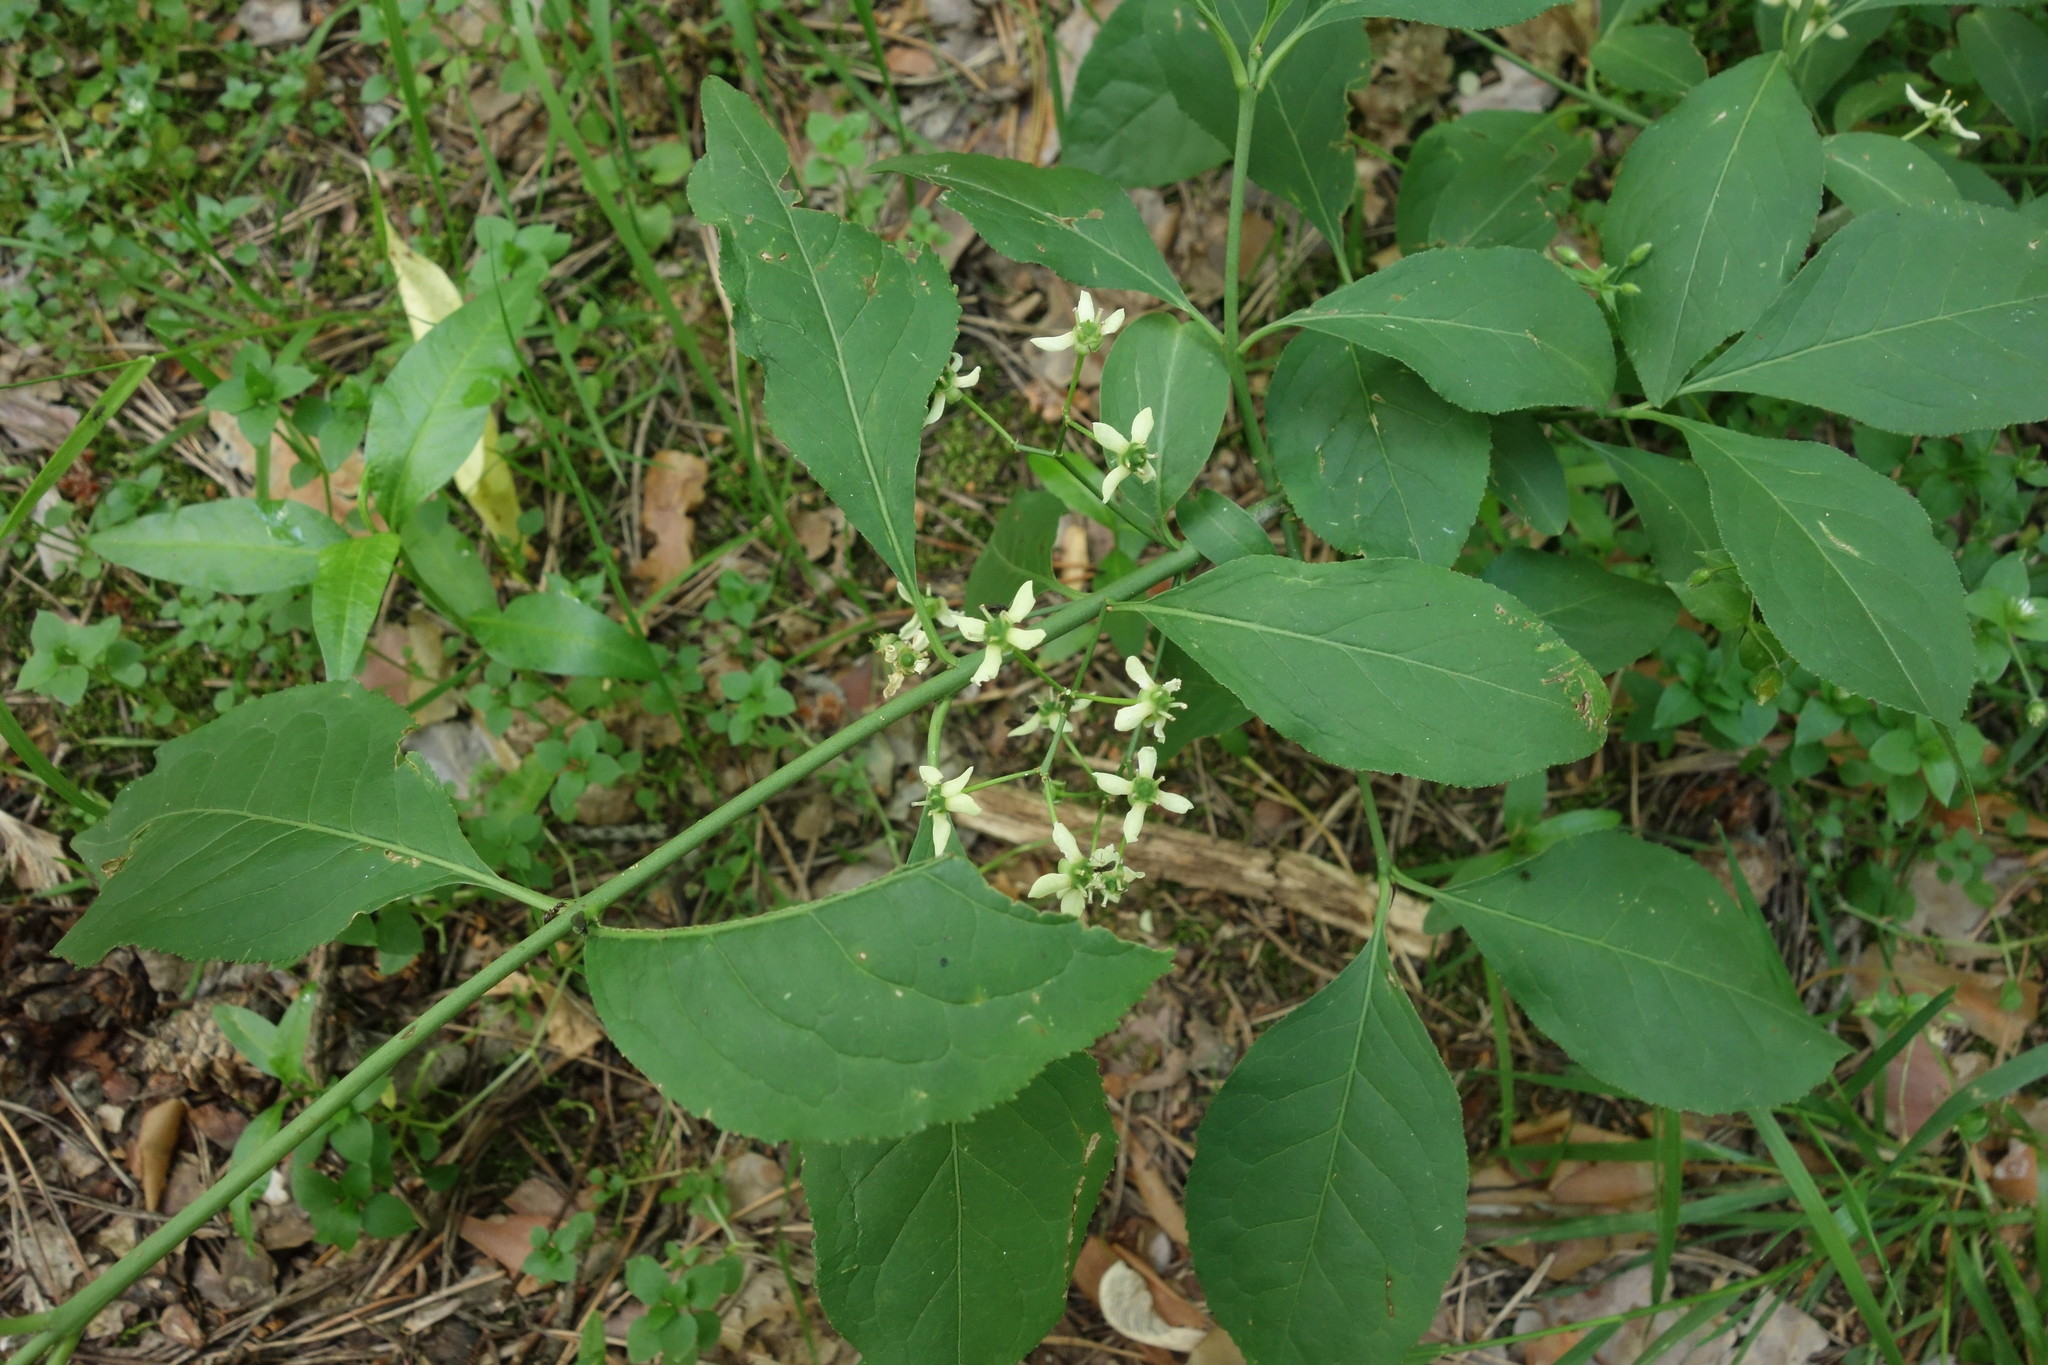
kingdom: Plantae
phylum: Tracheophyta
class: Magnoliopsida
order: Celastrales
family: Celastraceae
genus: Euonymus
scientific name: Euonymus europaeus
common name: Spindle
